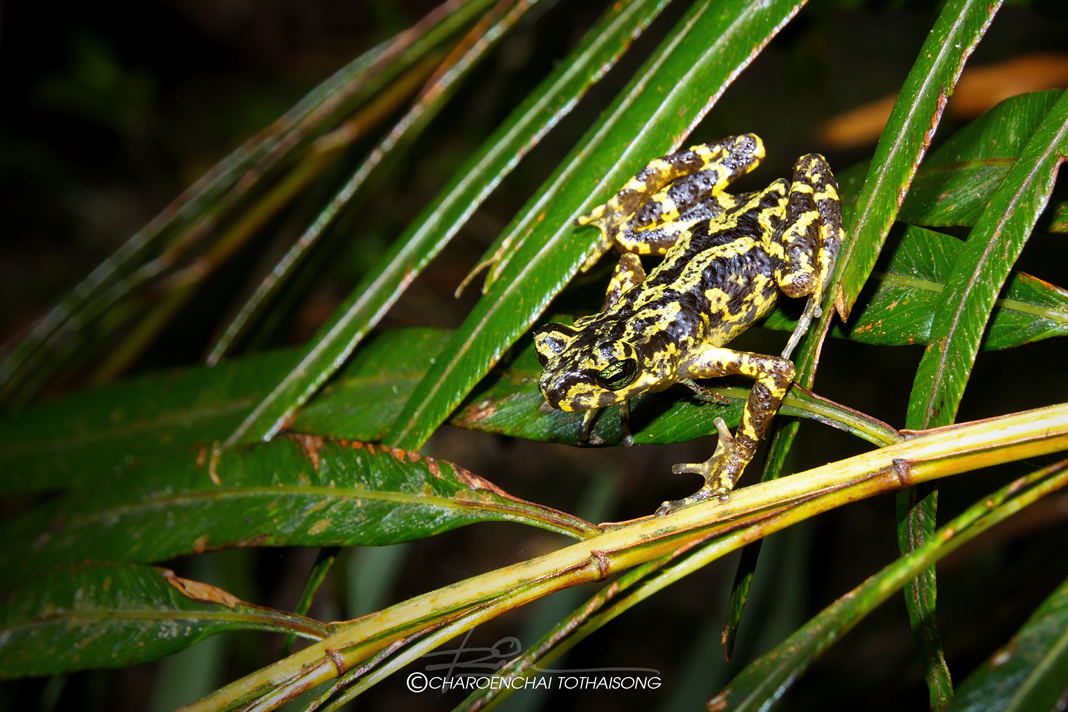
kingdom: Animalia
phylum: Chordata
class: Amphibia
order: Anura
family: Bufonidae
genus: Ansonia
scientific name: Ansonia siamensis
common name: Siamese stream toad
